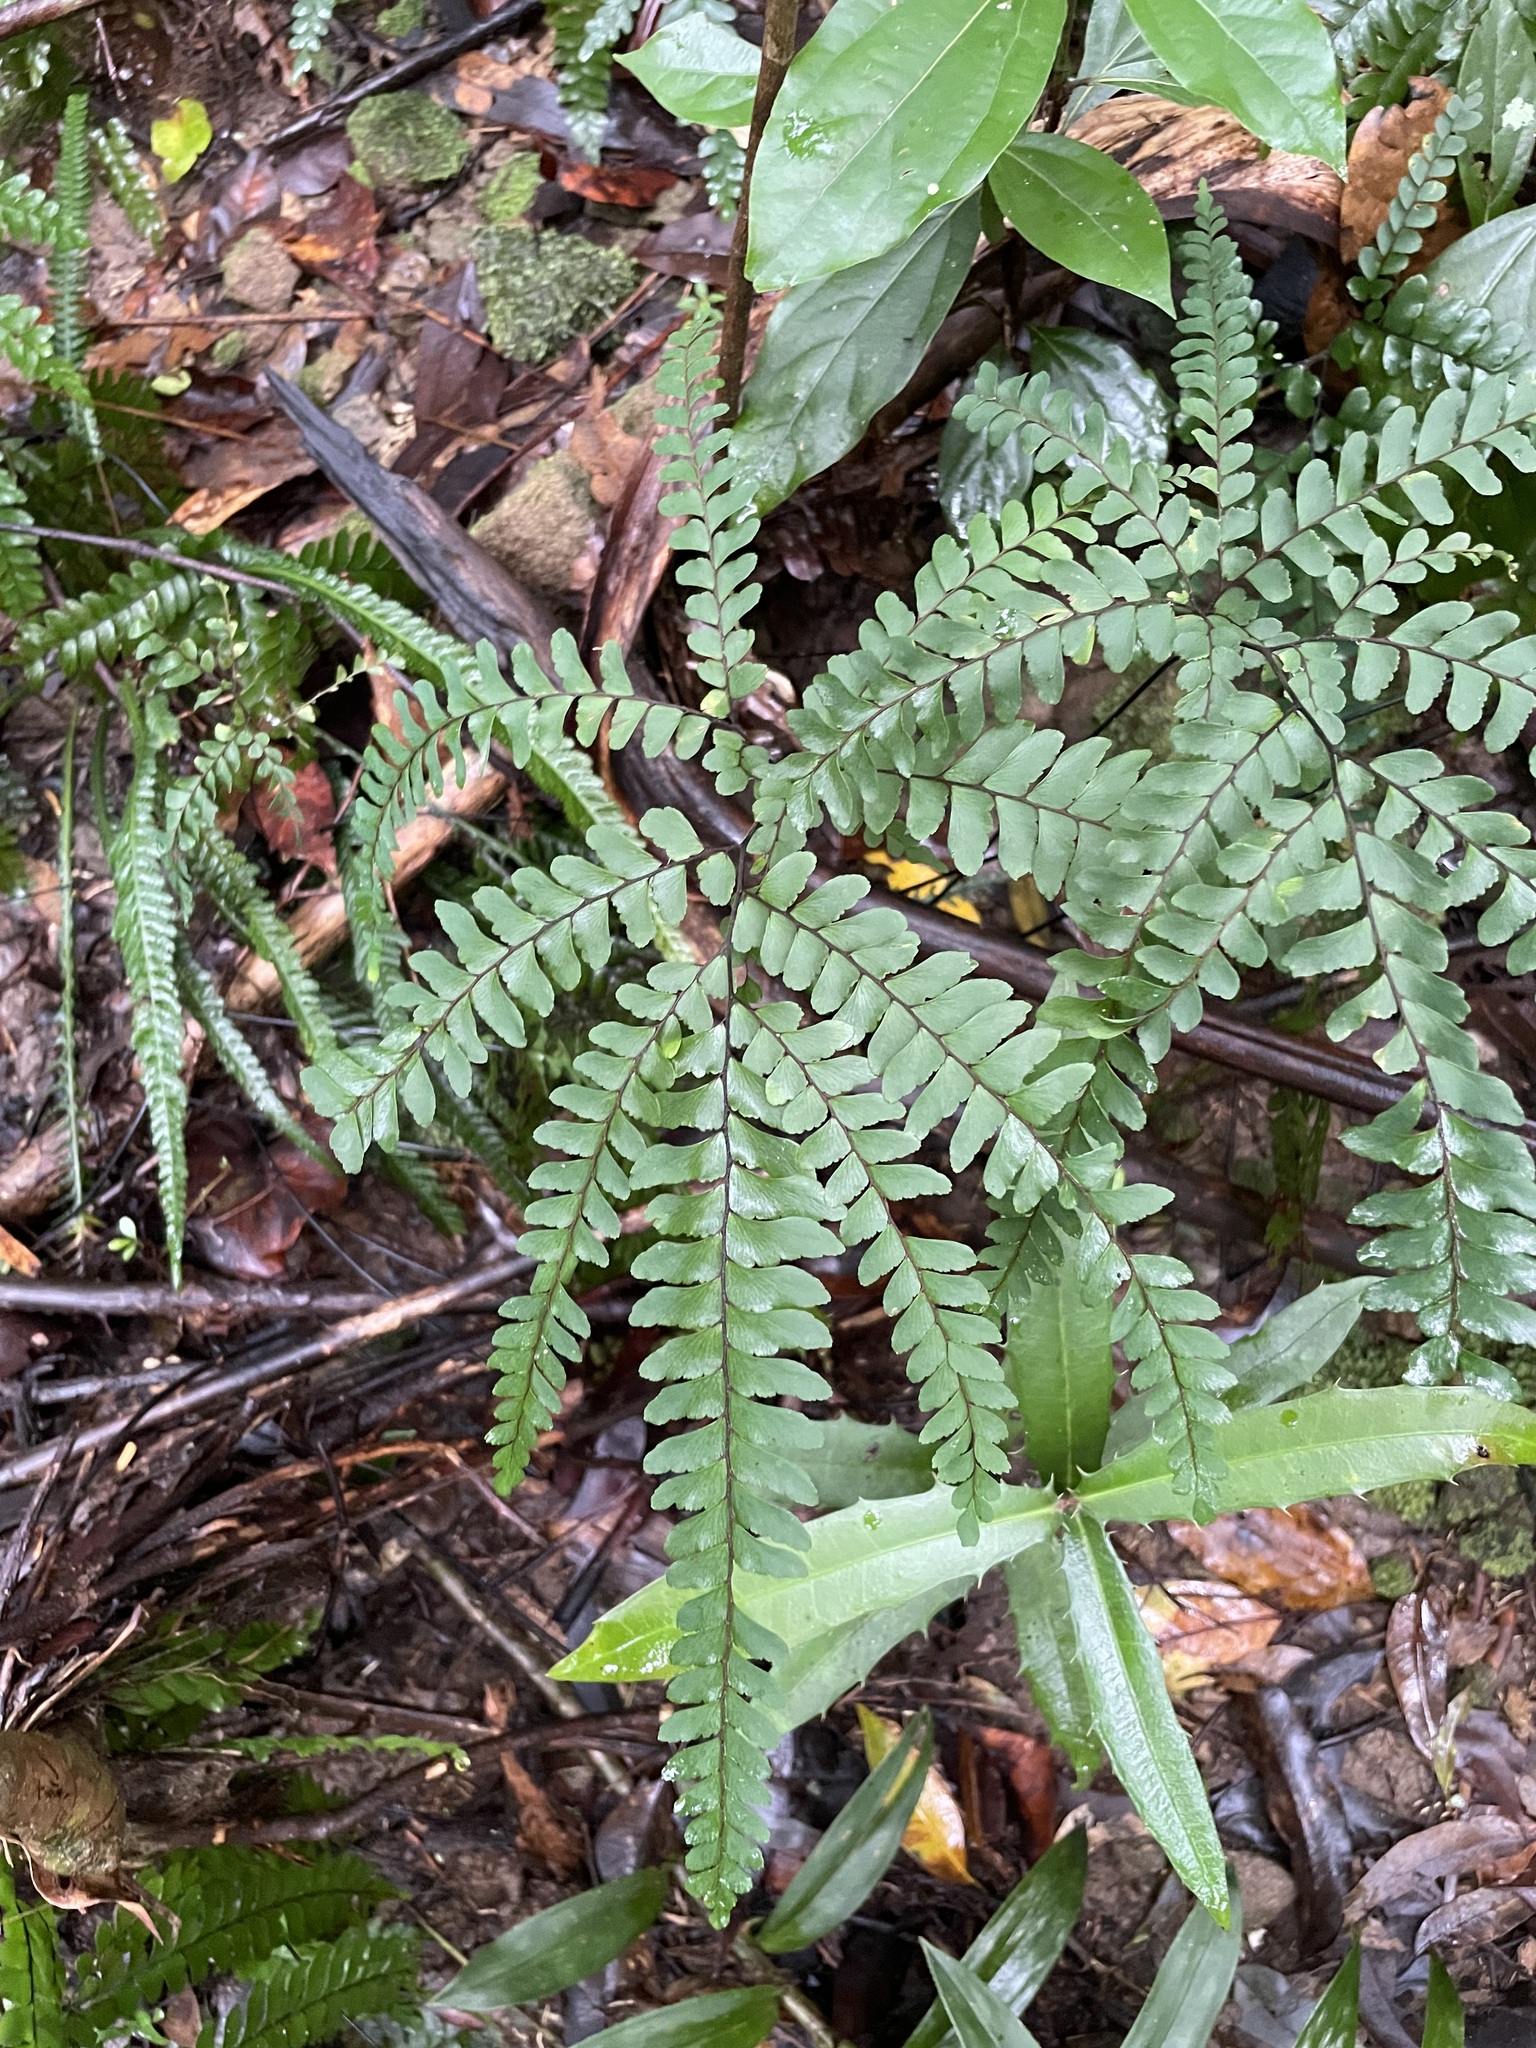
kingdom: Plantae
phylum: Tracheophyta
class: Polypodiopsida
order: Polypodiales
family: Pteridaceae
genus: Adiantum
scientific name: Adiantum silvaticum
